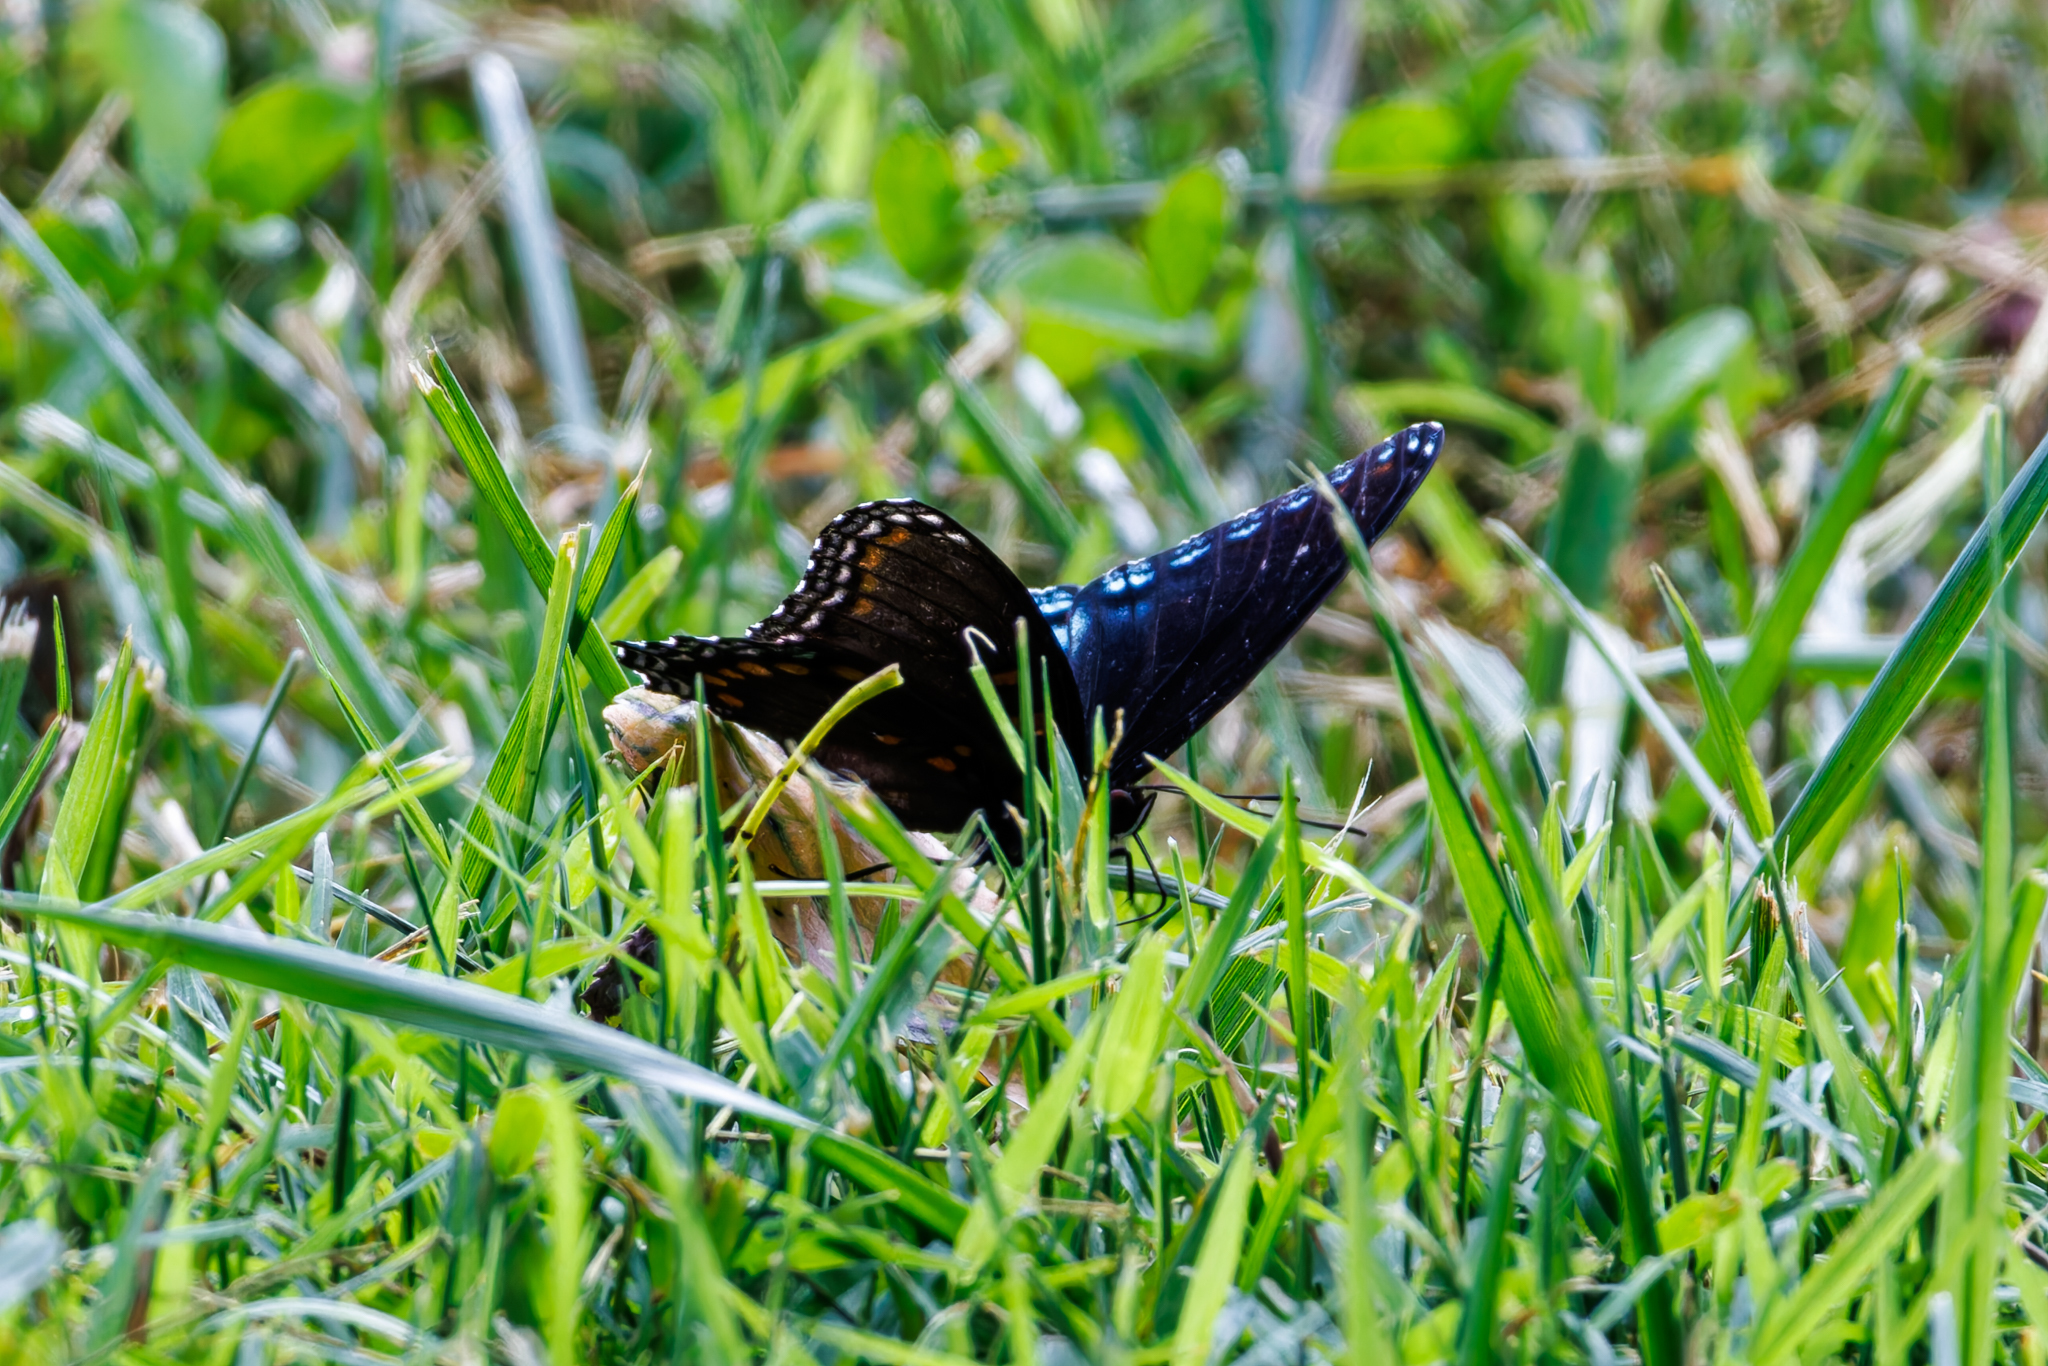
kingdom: Animalia
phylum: Arthropoda
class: Insecta
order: Lepidoptera
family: Nymphalidae
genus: Limenitis
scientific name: Limenitis astyanax
